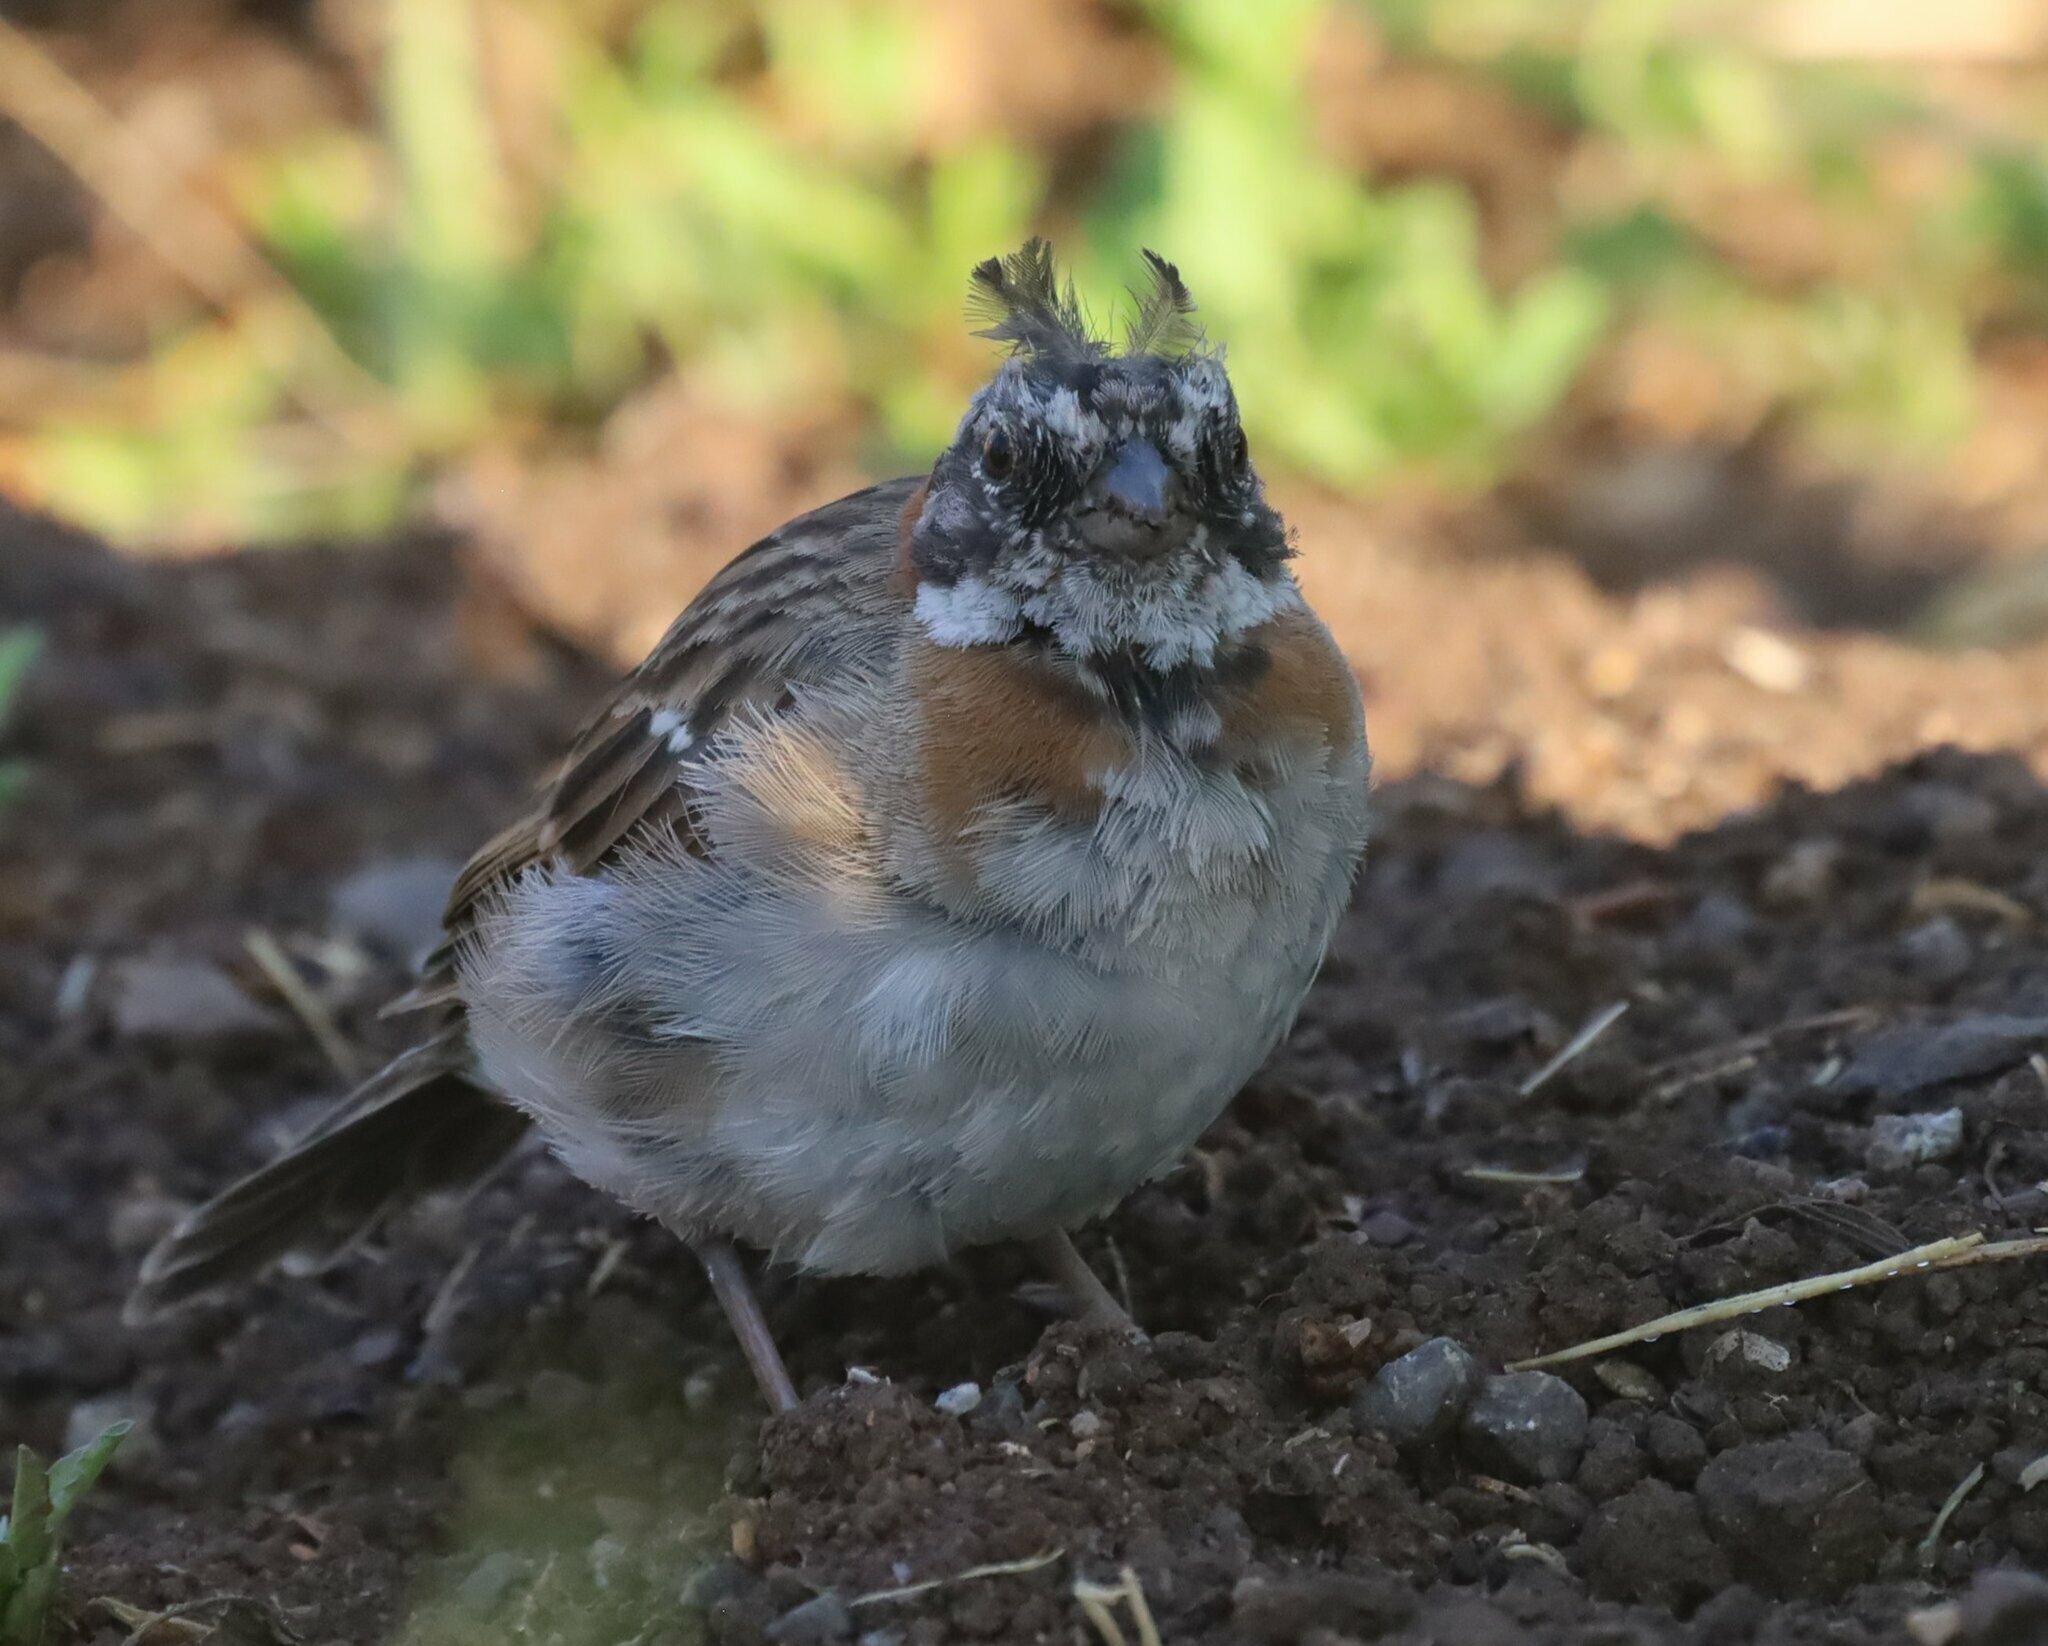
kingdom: Animalia
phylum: Chordata
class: Aves
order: Passeriformes
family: Passerellidae
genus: Zonotrichia
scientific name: Zonotrichia capensis
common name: Rufous-collared sparrow
